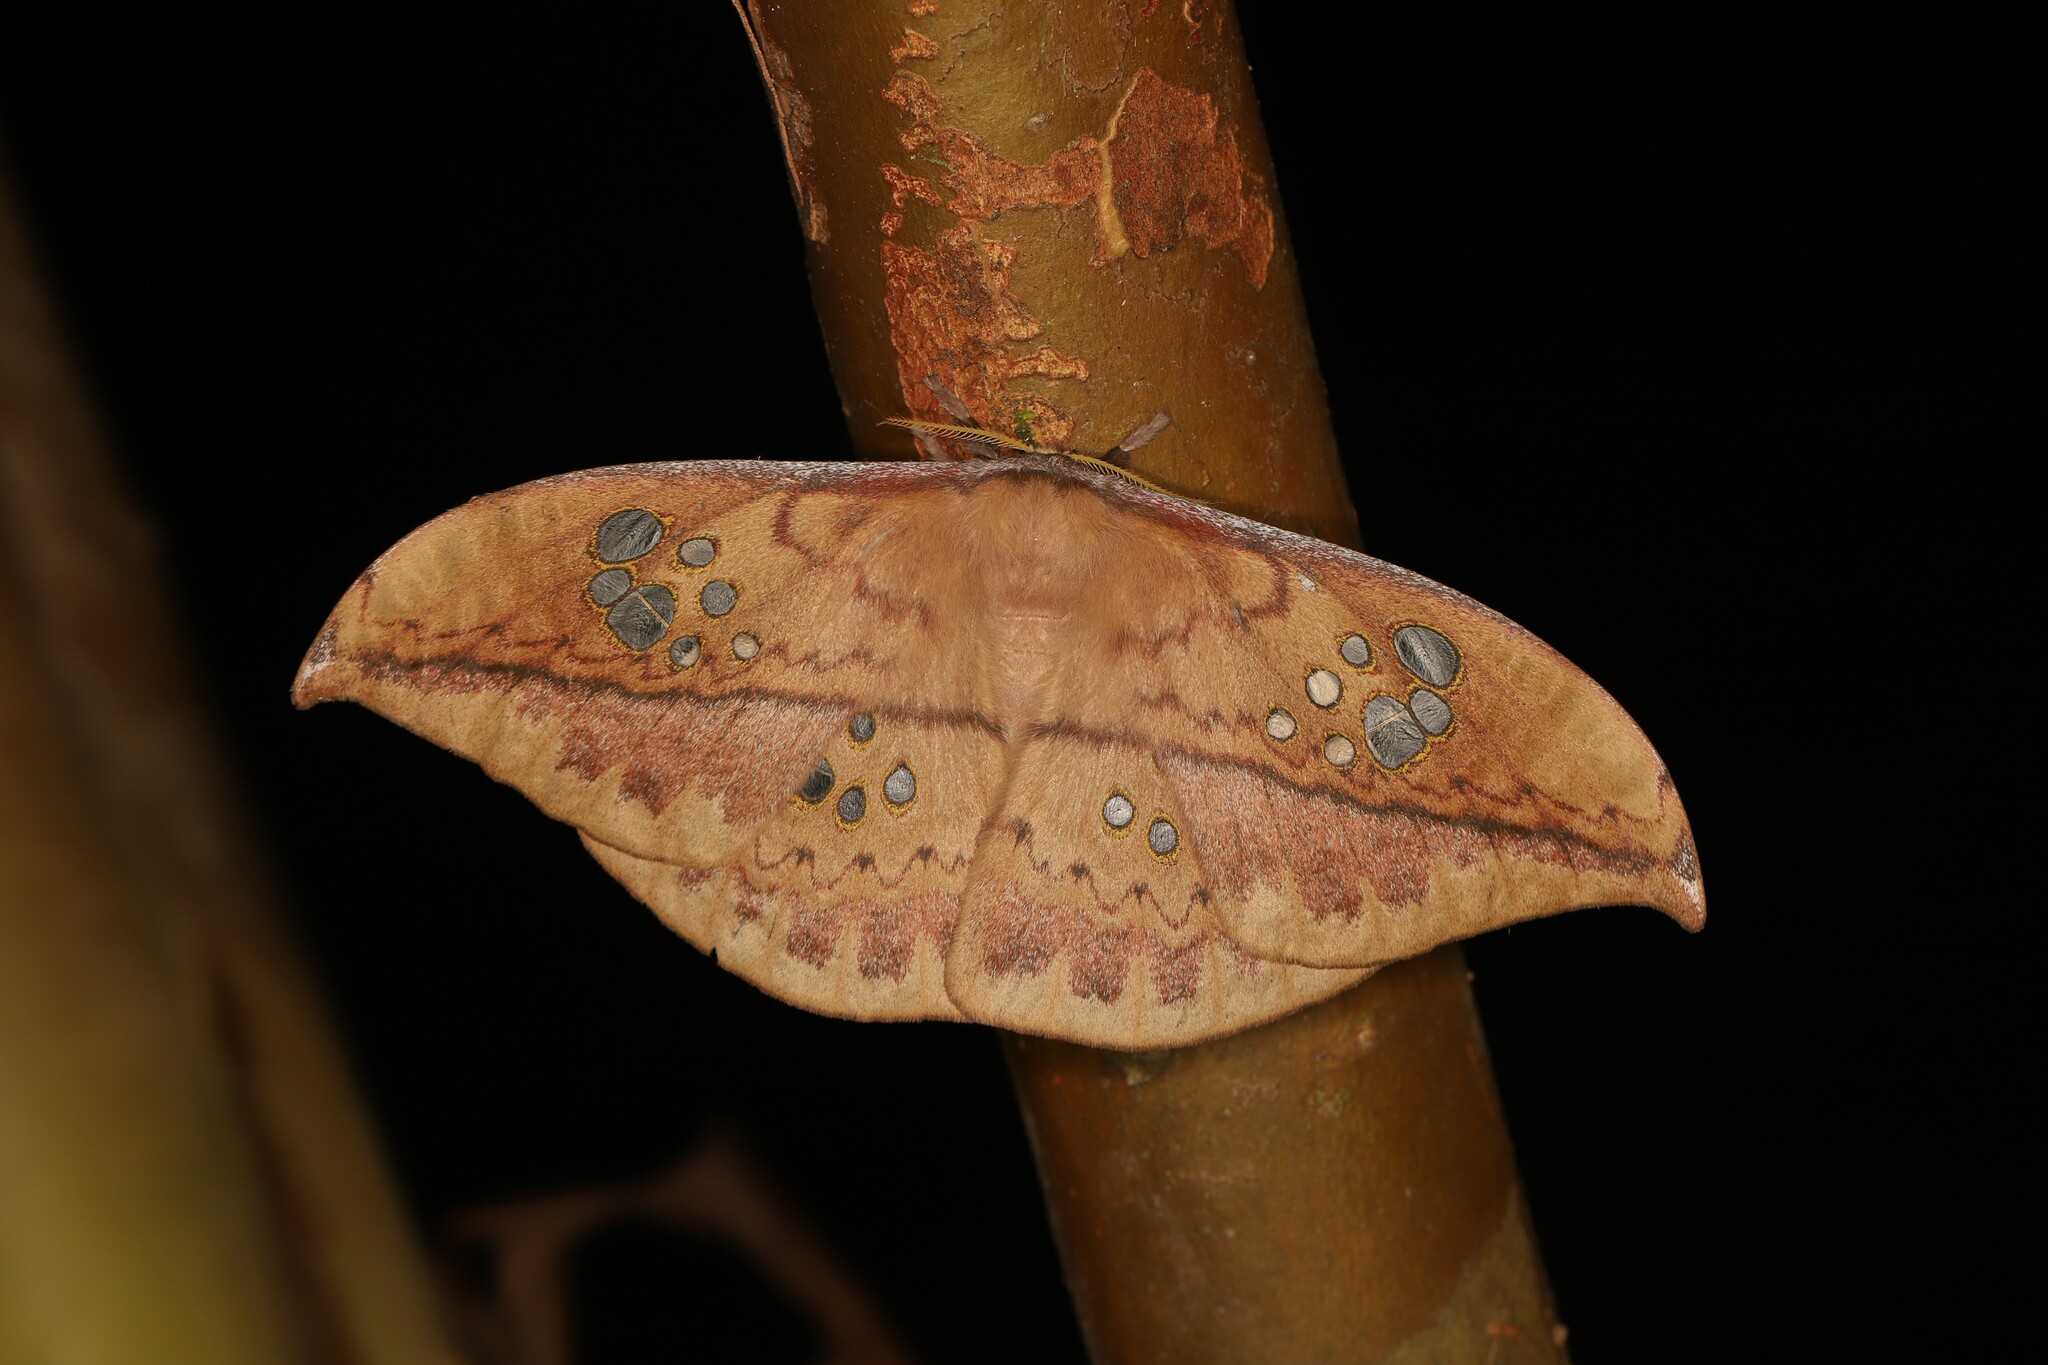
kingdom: Animalia
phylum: Arthropoda
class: Insecta
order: Lepidoptera
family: Saturniidae
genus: Copaxa
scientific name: Copaxa multifenestrata
